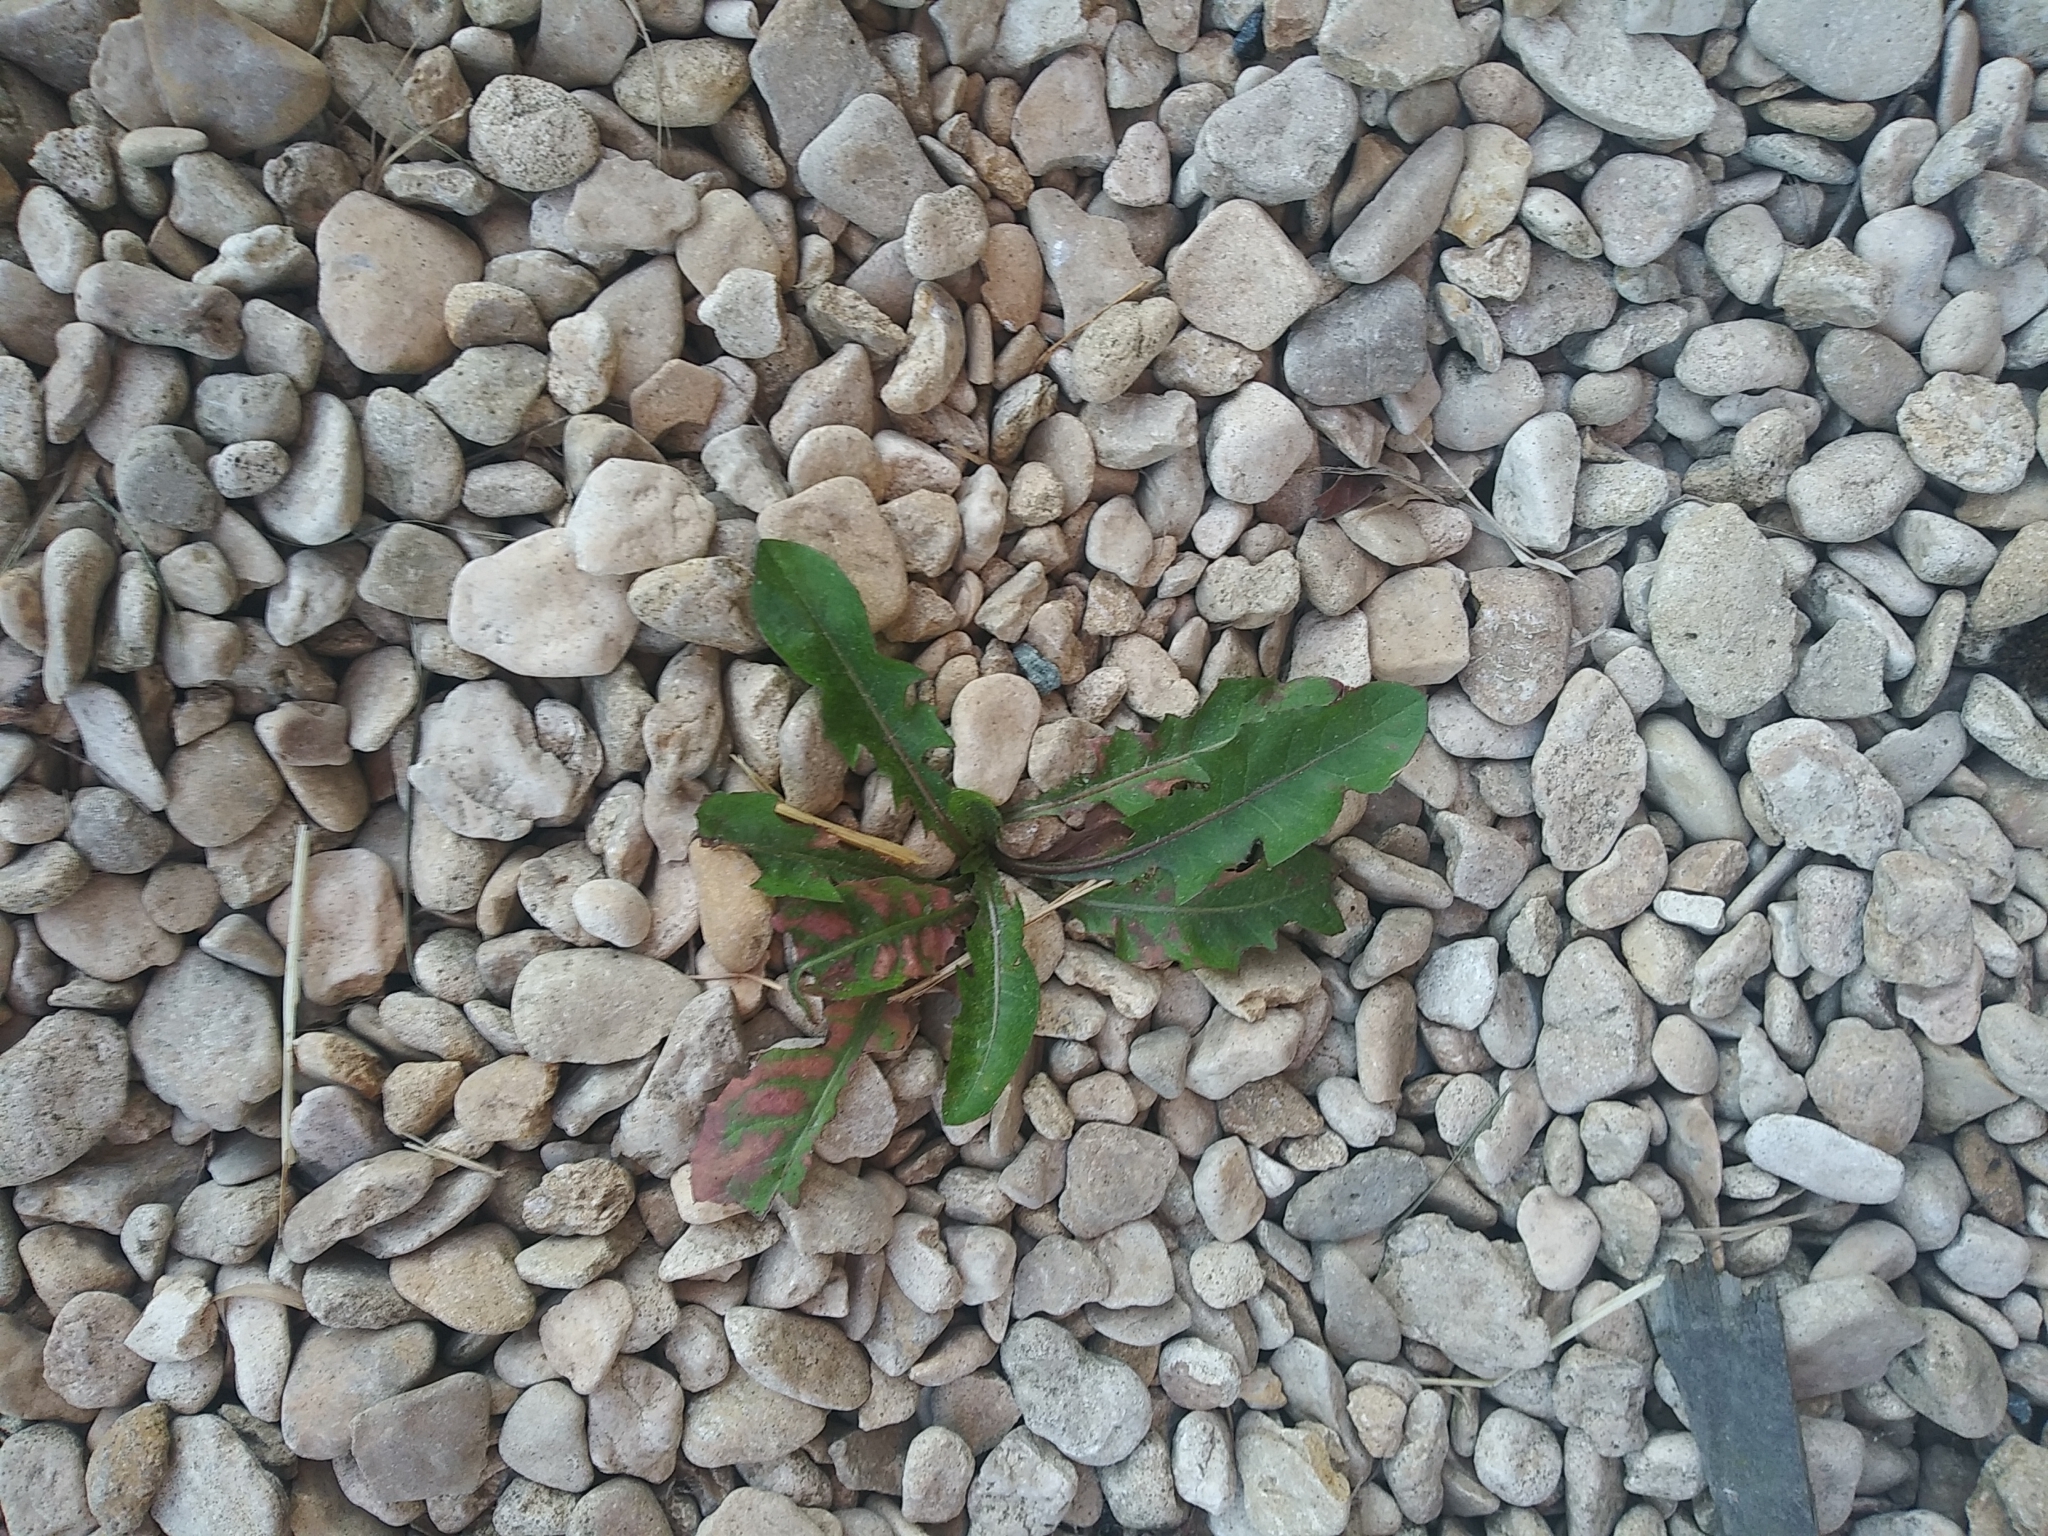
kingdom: Plantae
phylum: Tracheophyta
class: Magnoliopsida
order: Asterales
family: Asteraceae
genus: Taraxacum
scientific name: Taraxacum officinale
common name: Common dandelion
